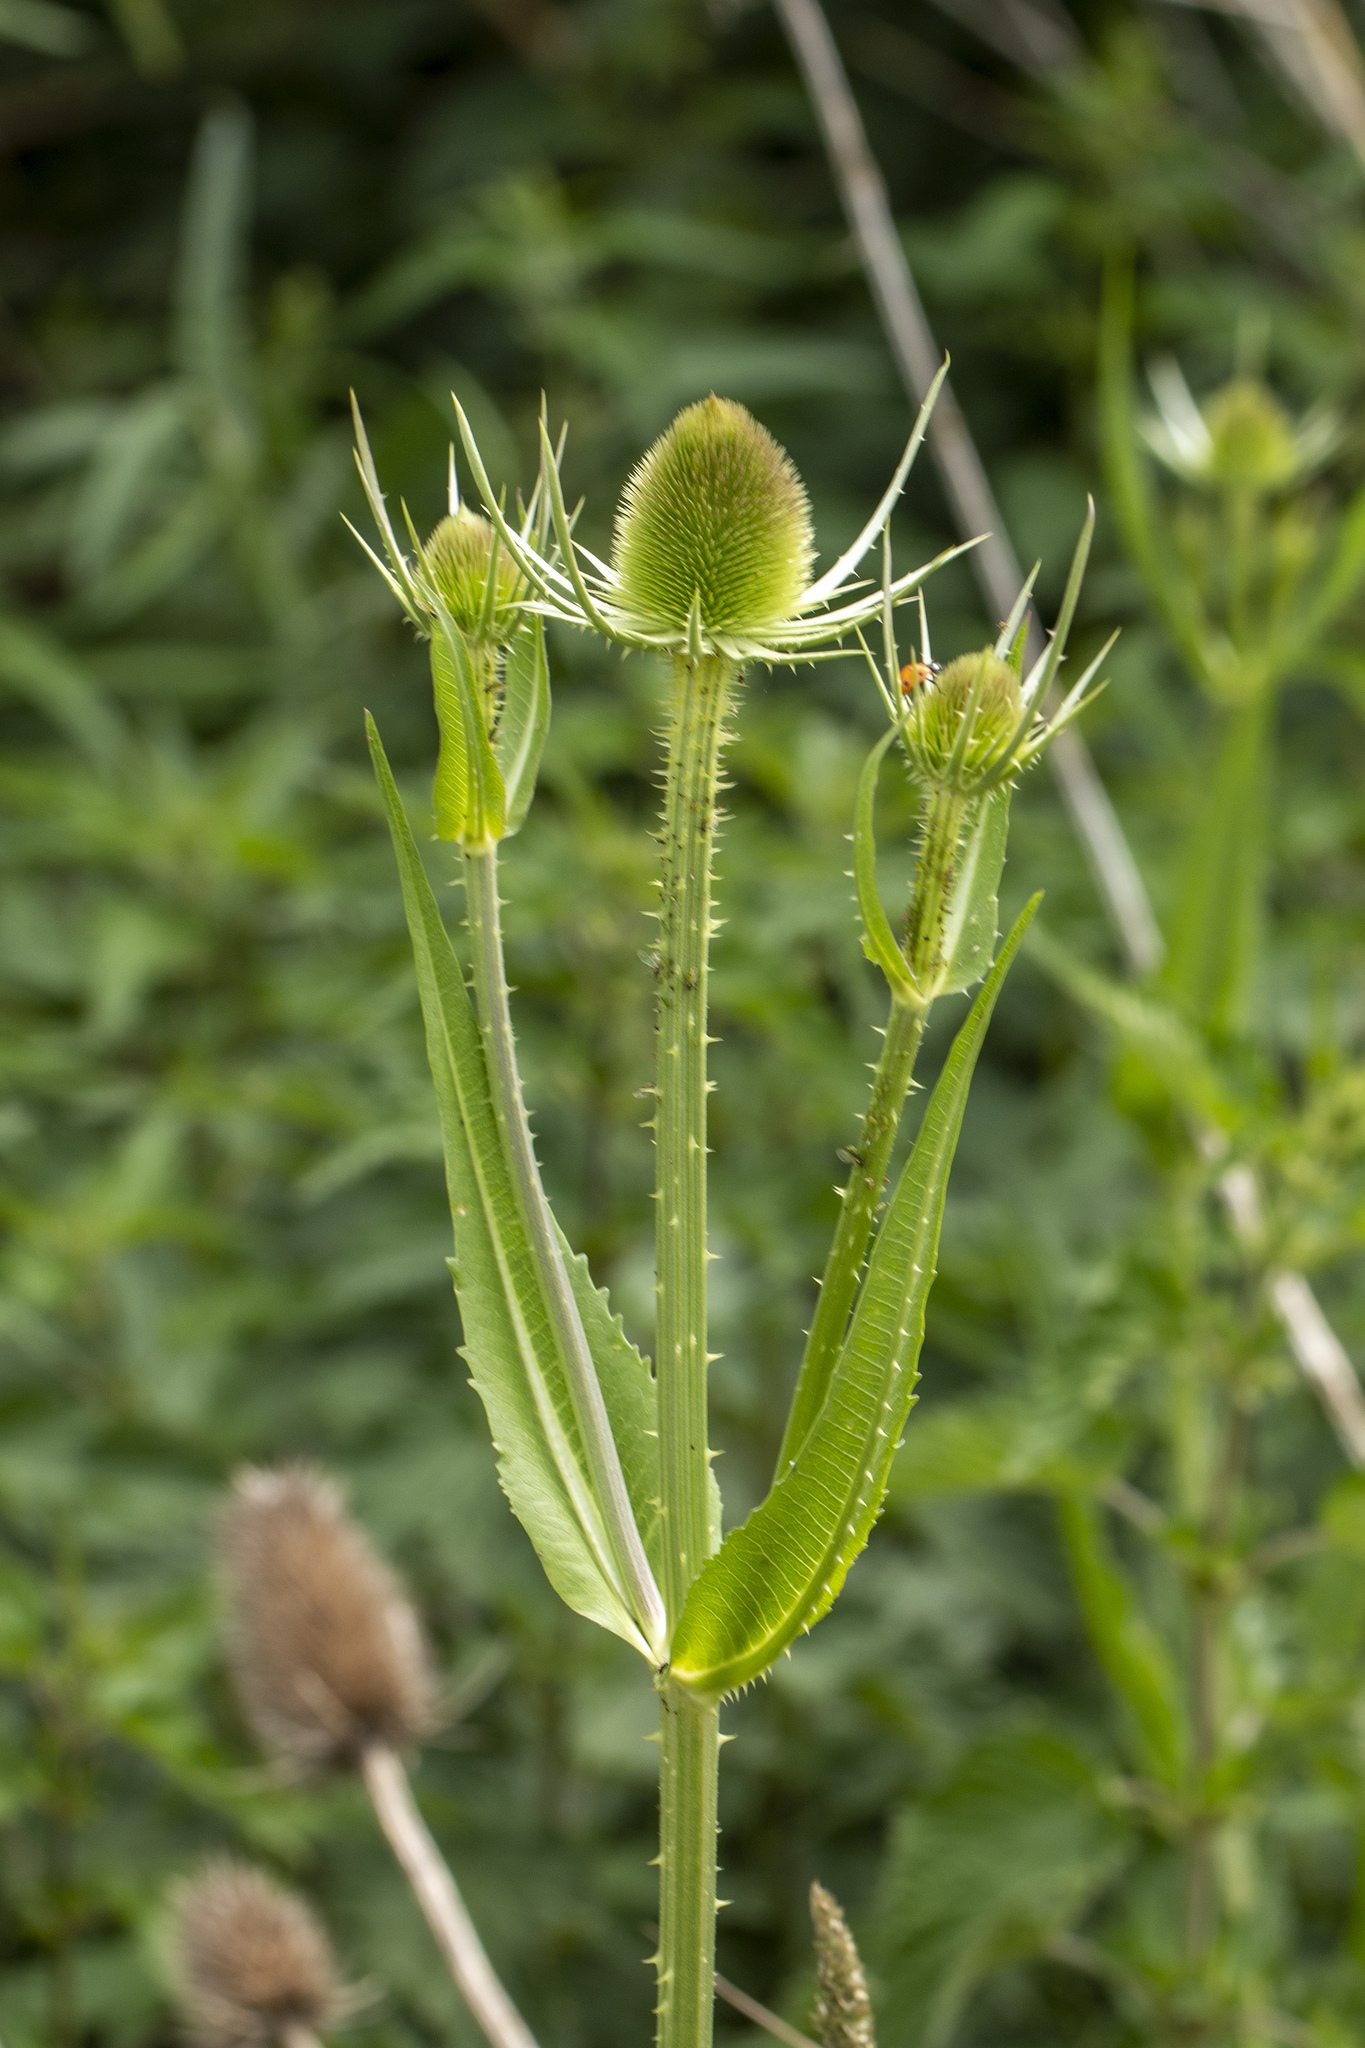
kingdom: Plantae
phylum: Tracheophyta
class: Magnoliopsida
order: Dipsacales
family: Caprifoliaceae
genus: Dipsacus
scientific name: Dipsacus fullonum
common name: Teasel
